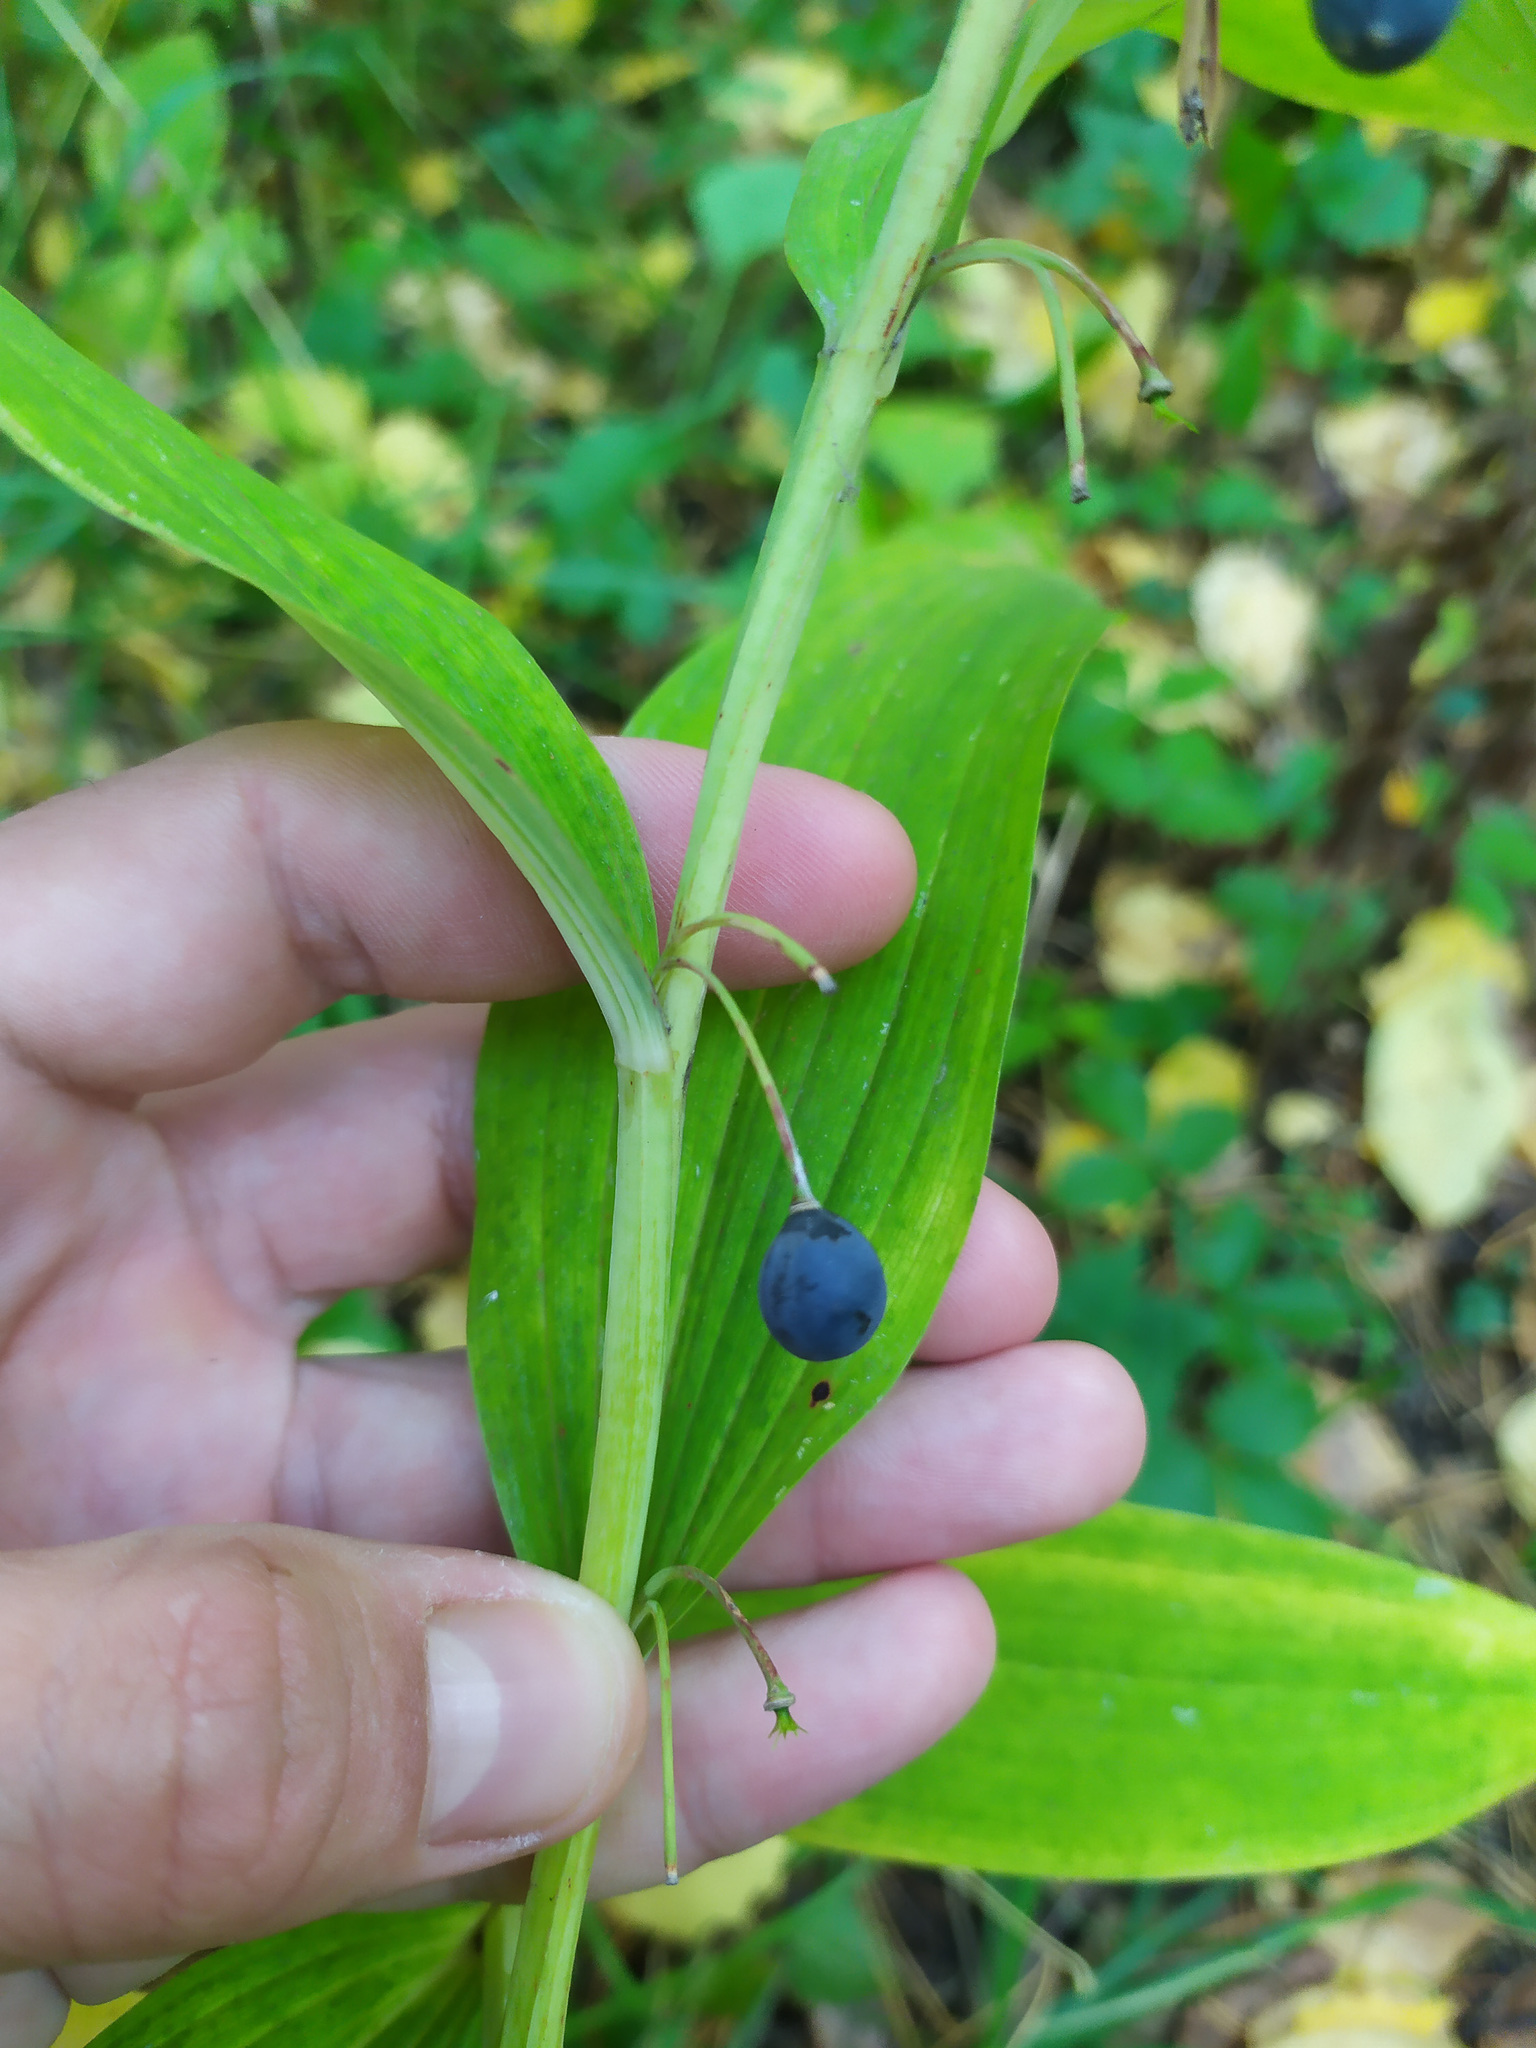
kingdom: Plantae
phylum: Tracheophyta
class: Liliopsida
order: Asparagales
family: Asparagaceae
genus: Polygonatum
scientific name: Polygonatum odoratum
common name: Angular solomon's-seal
